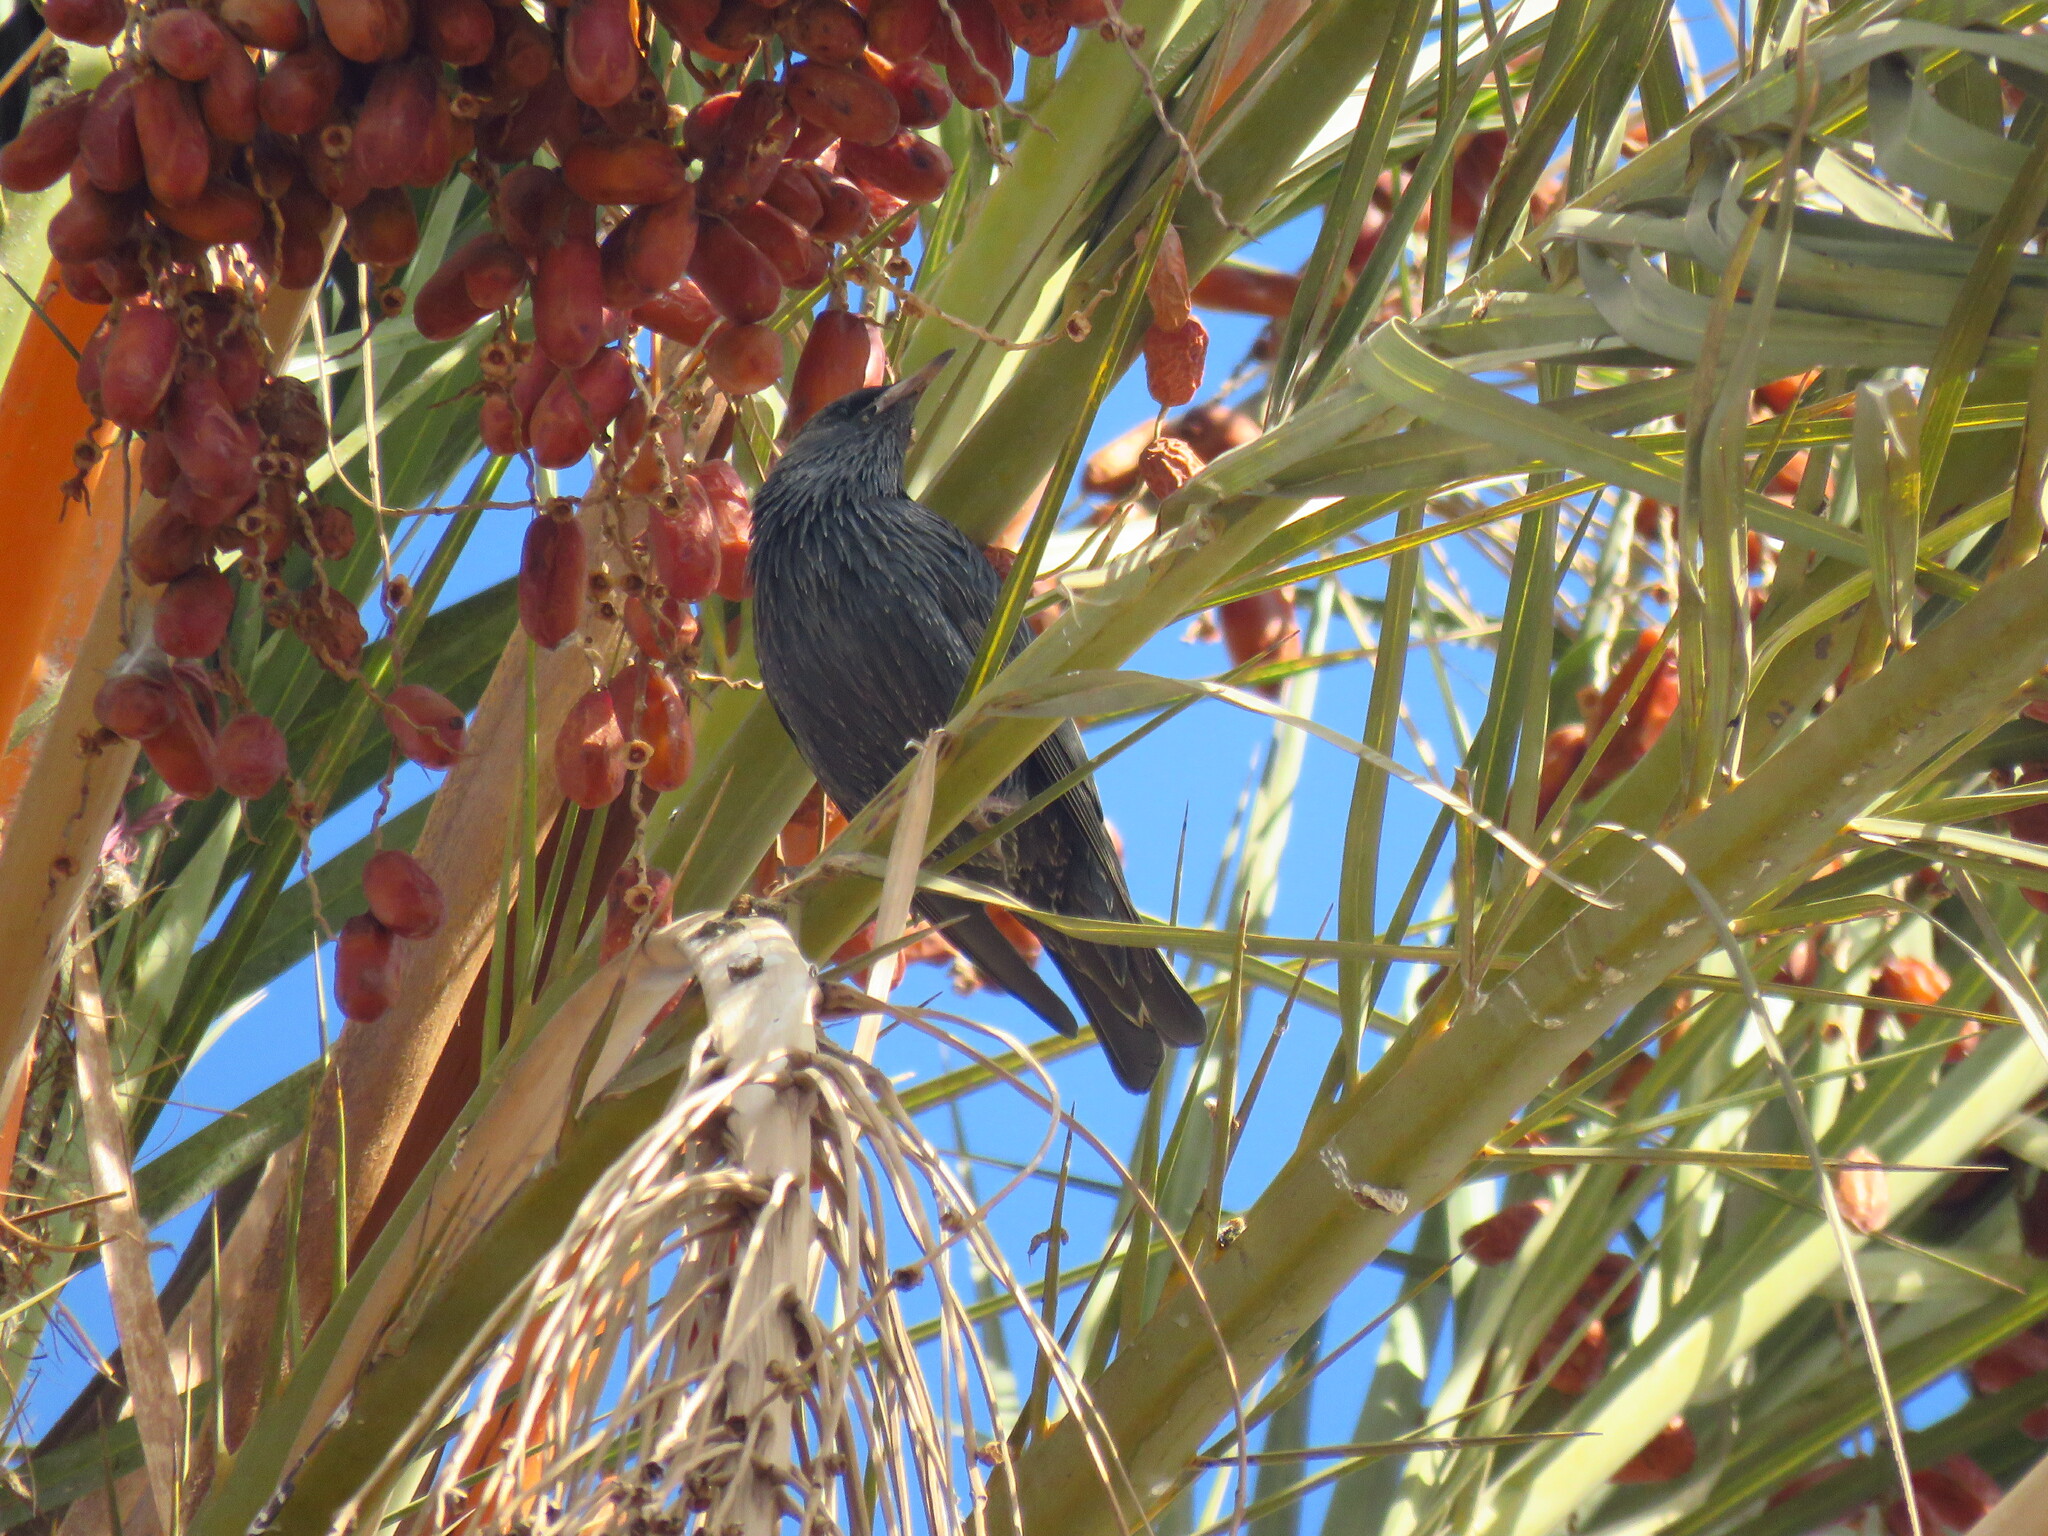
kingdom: Animalia
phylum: Chordata
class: Aves
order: Passeriformes
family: Sturnidae
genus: Sturnus
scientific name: Sturnus unicolor
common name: Spotless starling
